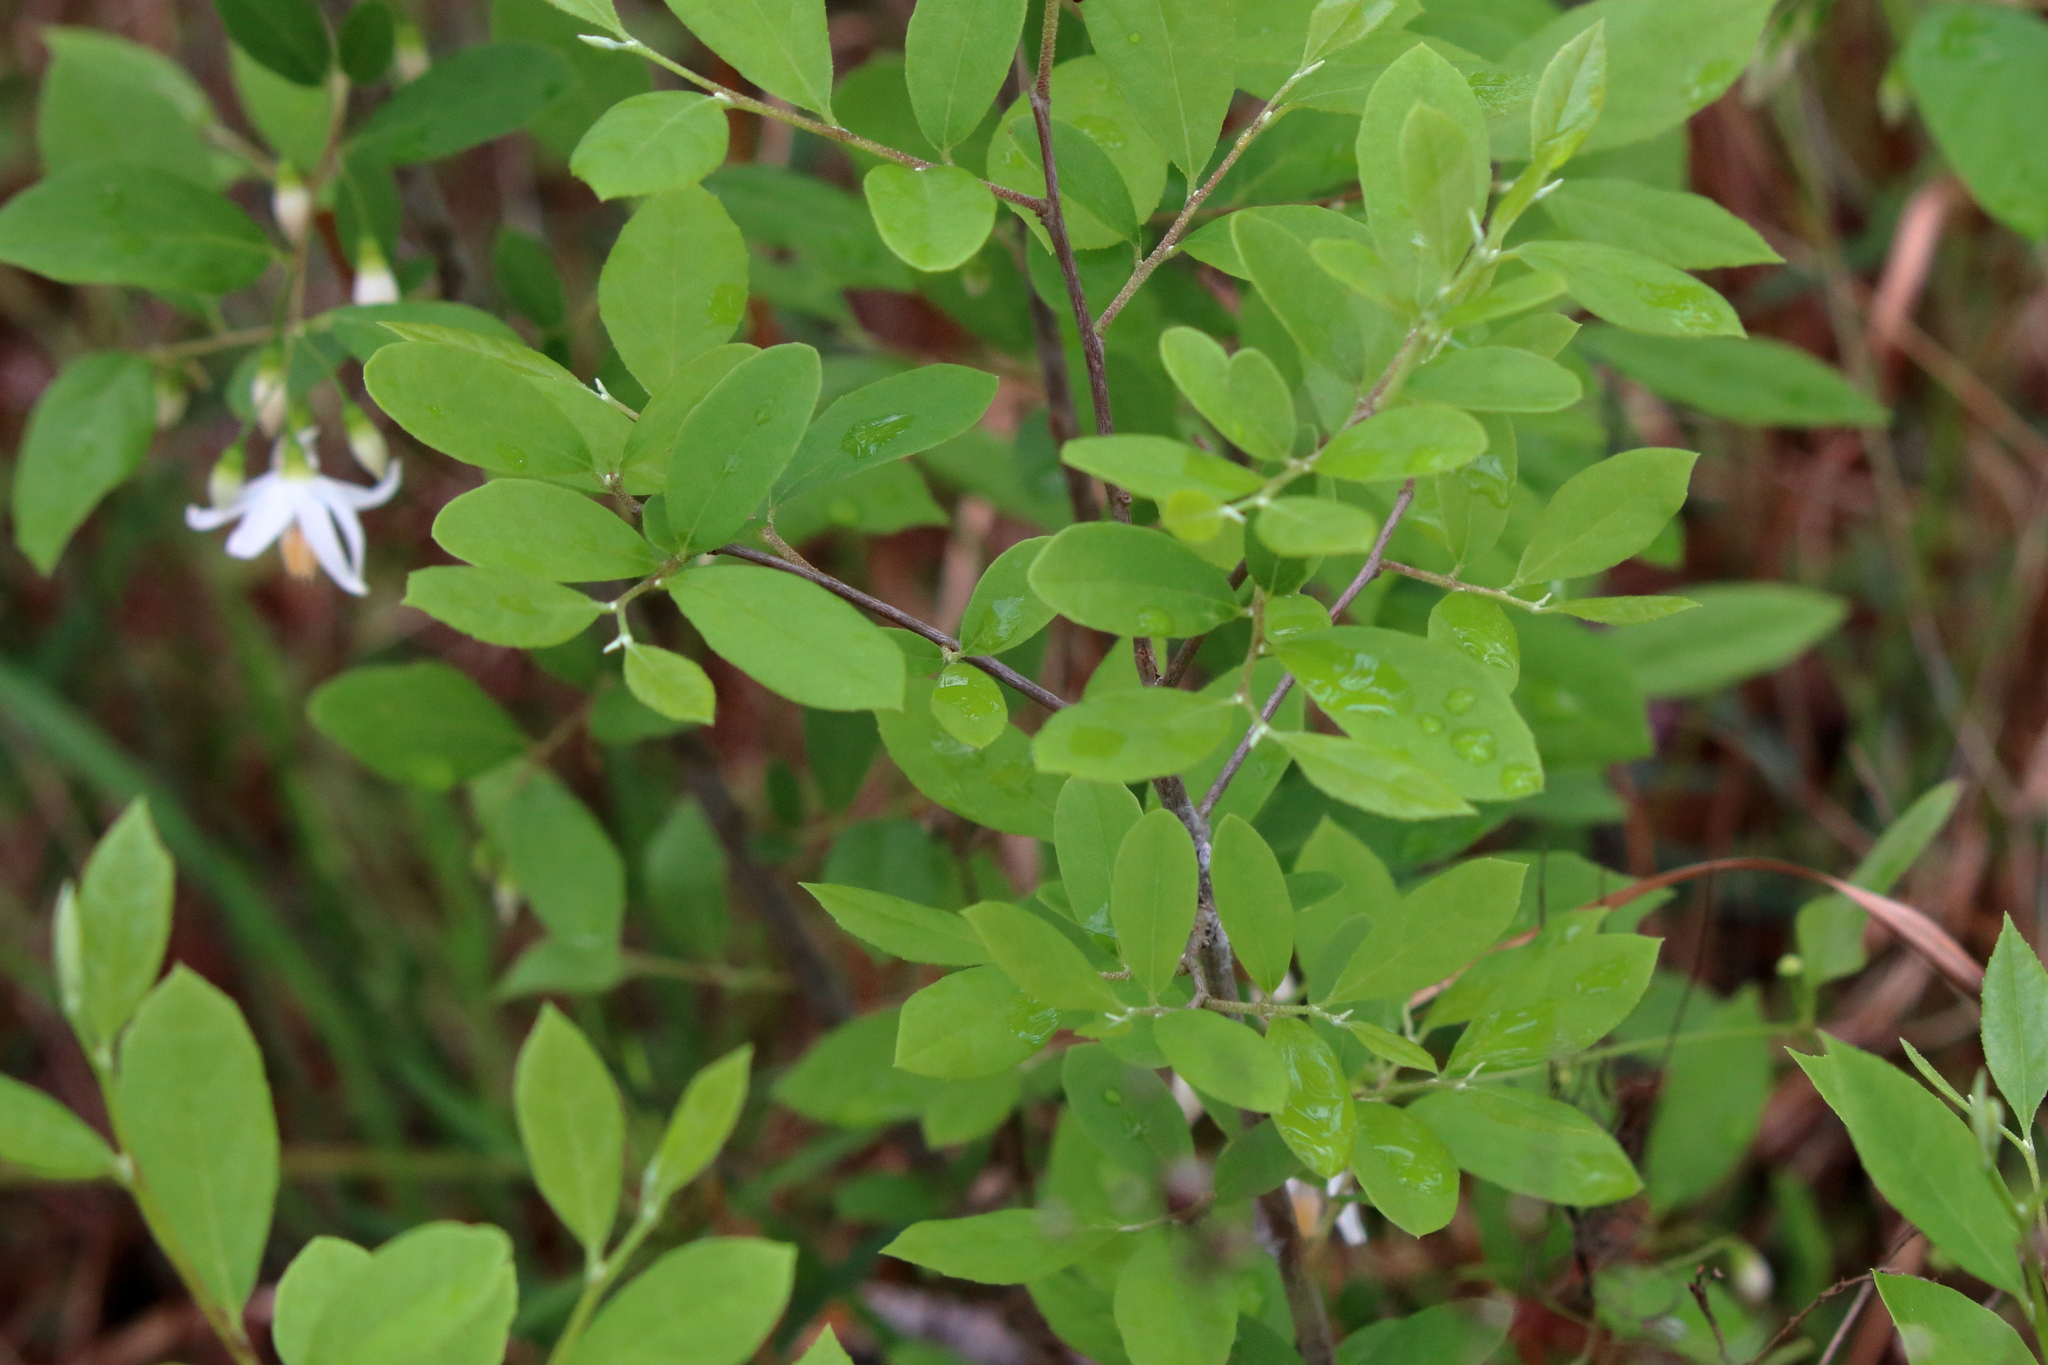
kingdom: Plantae
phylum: Tracheophyta
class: Magnoliopsida
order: Ericales
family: Styracaceae
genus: Styrax
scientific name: Styrax americanus
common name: American snowbell
